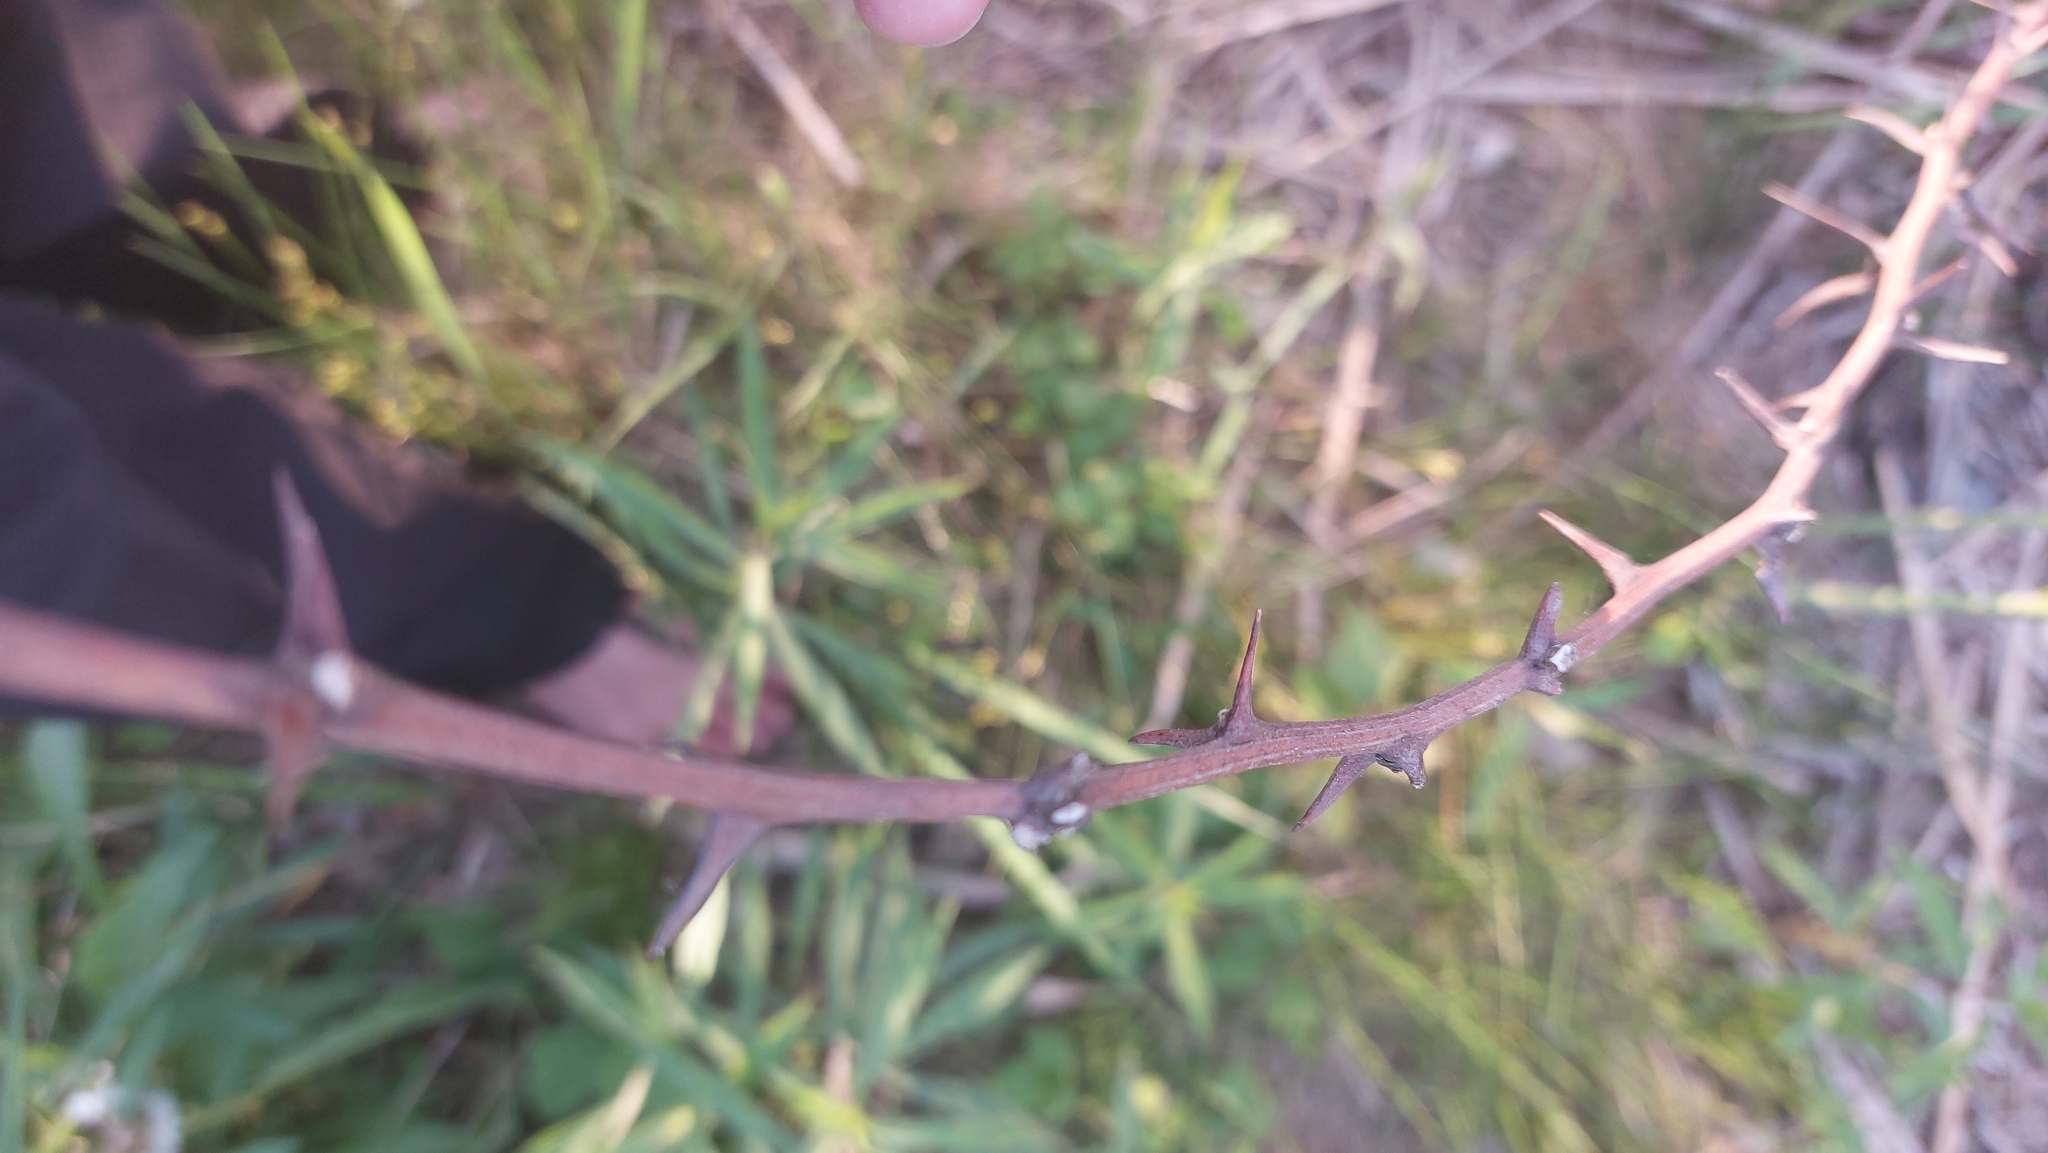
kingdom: Plantae
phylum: Tracheophyta
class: Magnoliopsida
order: Fabales
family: Fabaceae
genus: Robinia
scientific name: Robinia pseudoacacia
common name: Black locust
